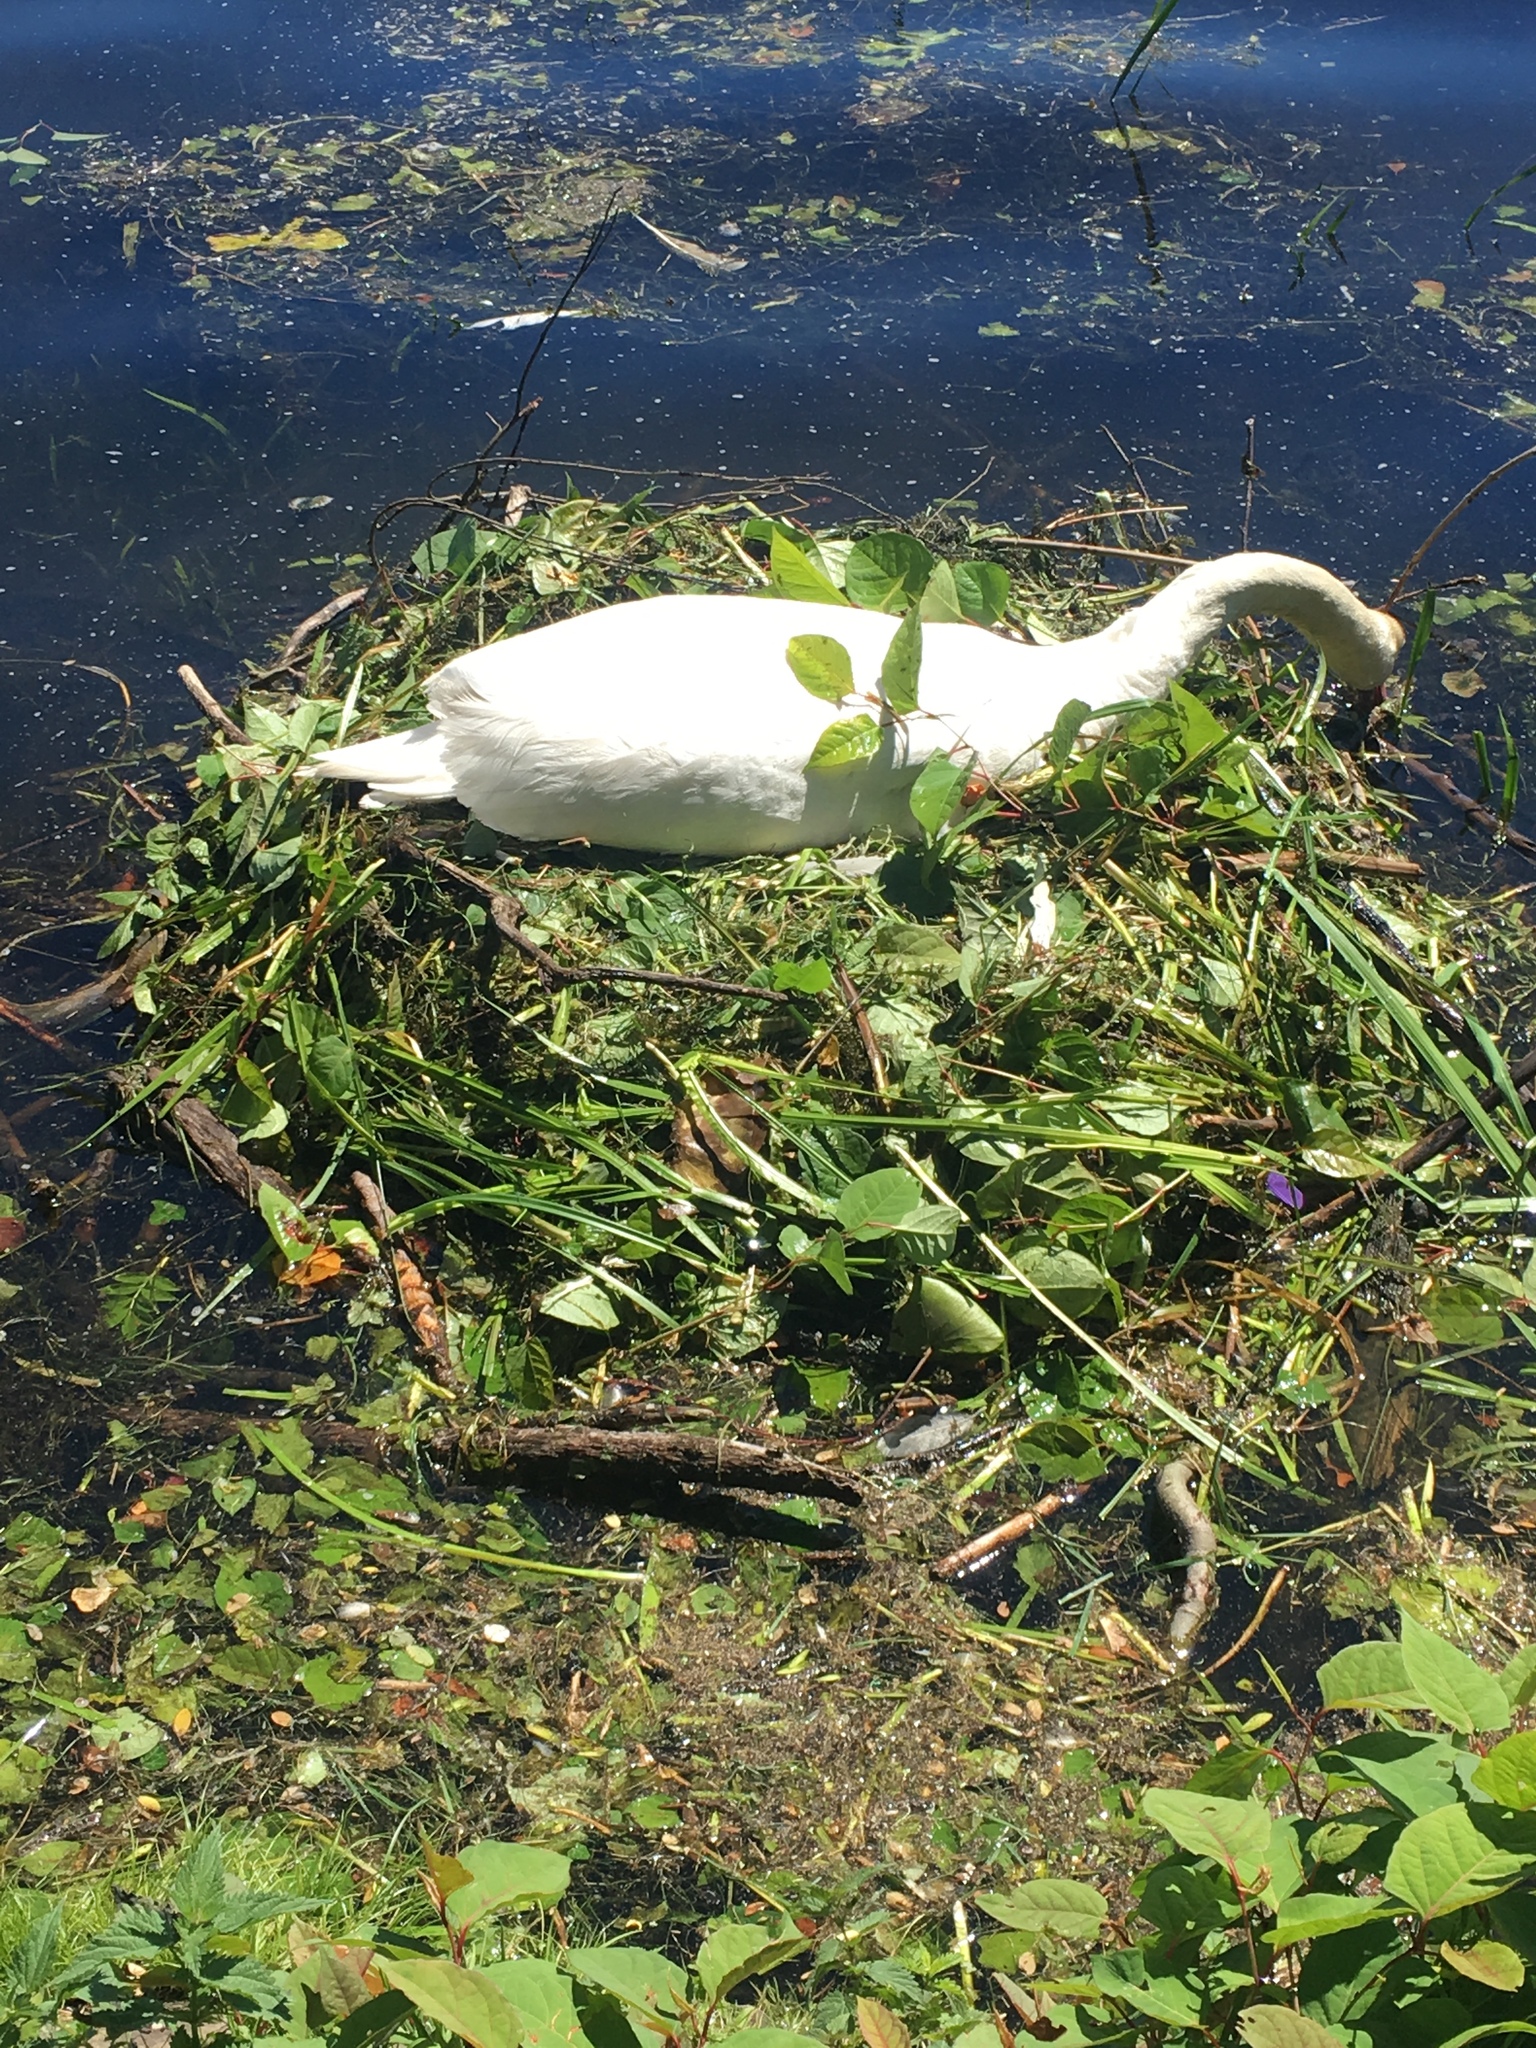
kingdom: Animalia
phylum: Chordata
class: Aves
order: Anseriformes
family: Anatidae
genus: Cygnus
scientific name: Cygnus olor
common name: Mute swan
